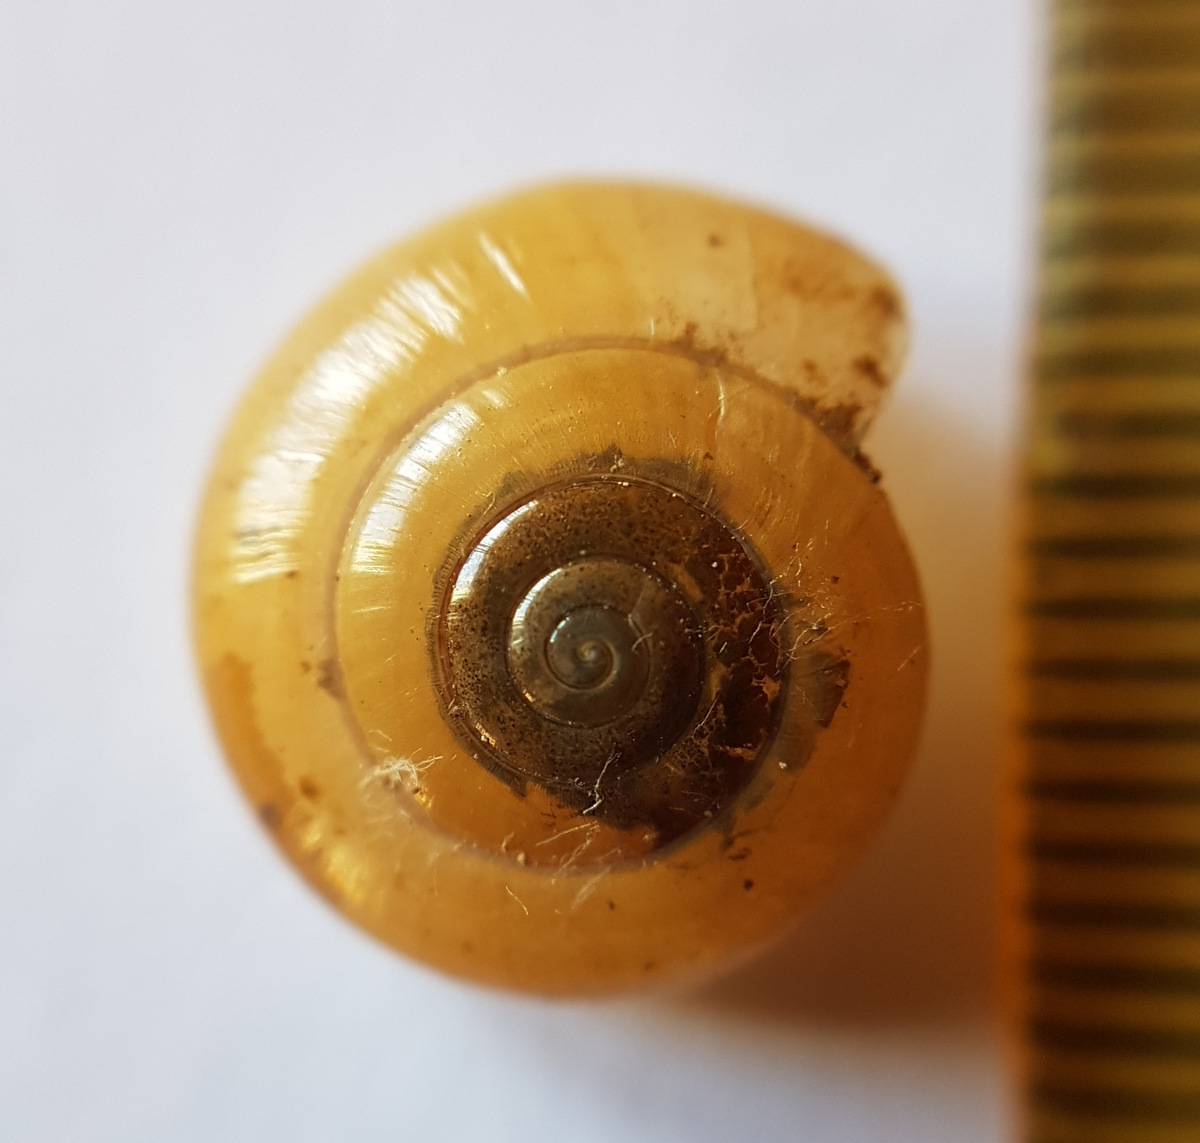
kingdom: Animalia
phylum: Mollusca
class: Gastropoda
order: Stylommatophora
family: Oxychilidae
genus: Morlina
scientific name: Morlina glabra
